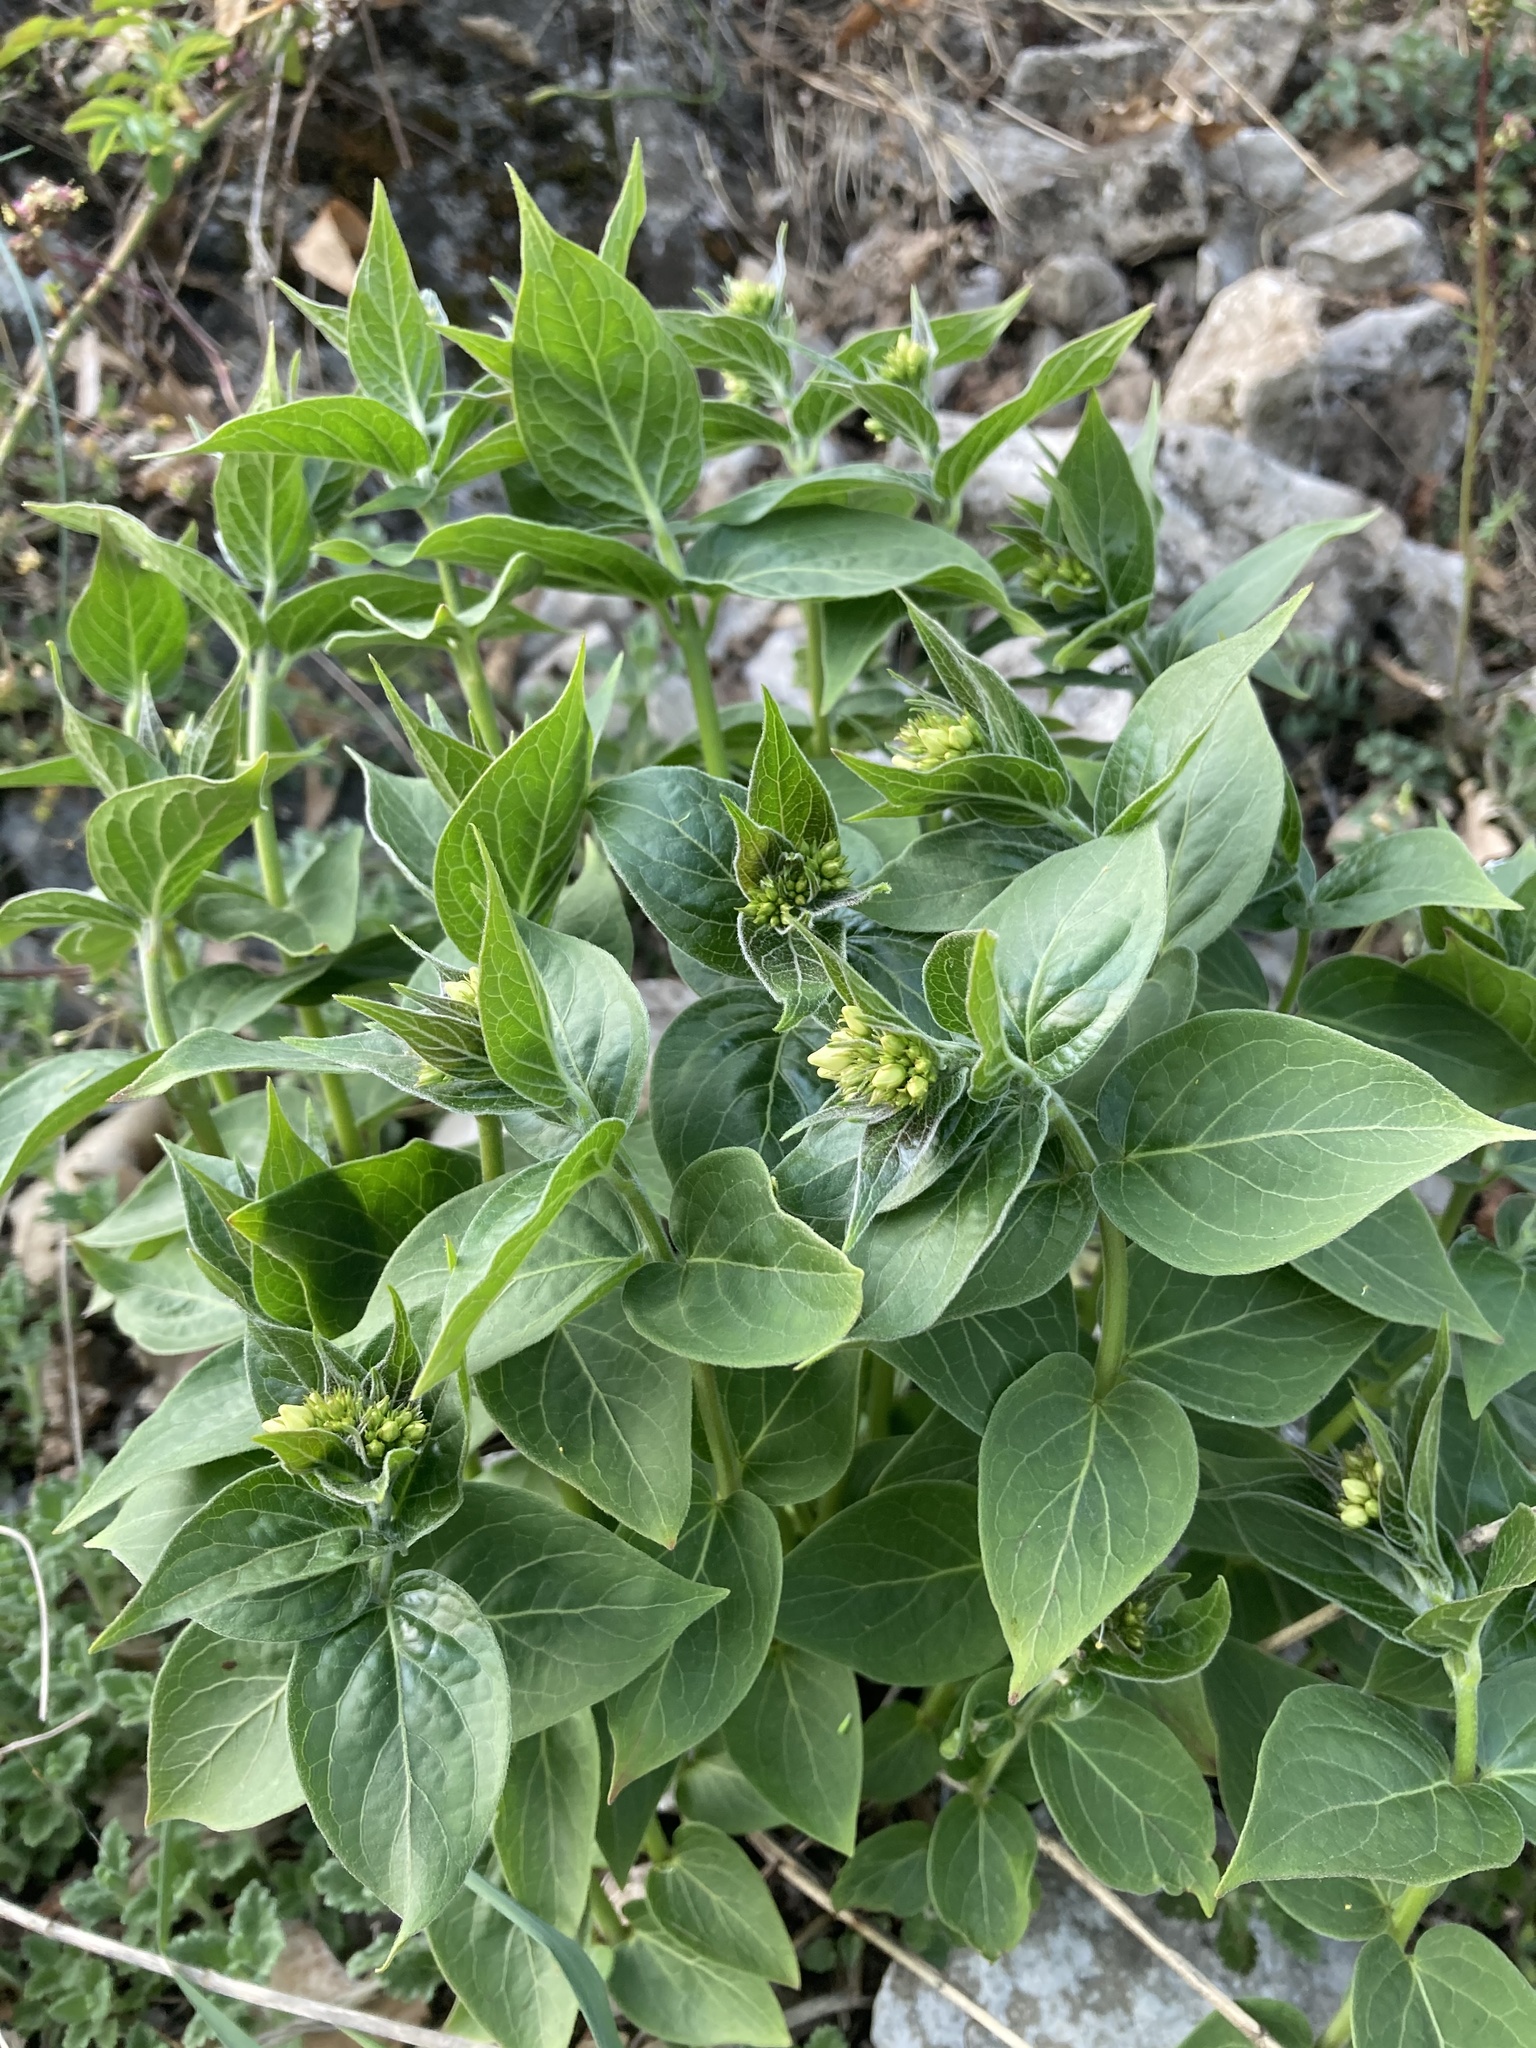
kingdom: Plantae
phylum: Tracheophyta
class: Magnoliopsida
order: Gentianales
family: Apocynaceae
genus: Vincetoxicum
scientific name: Vincetoxicum hirundinaria
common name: White swallowwort
